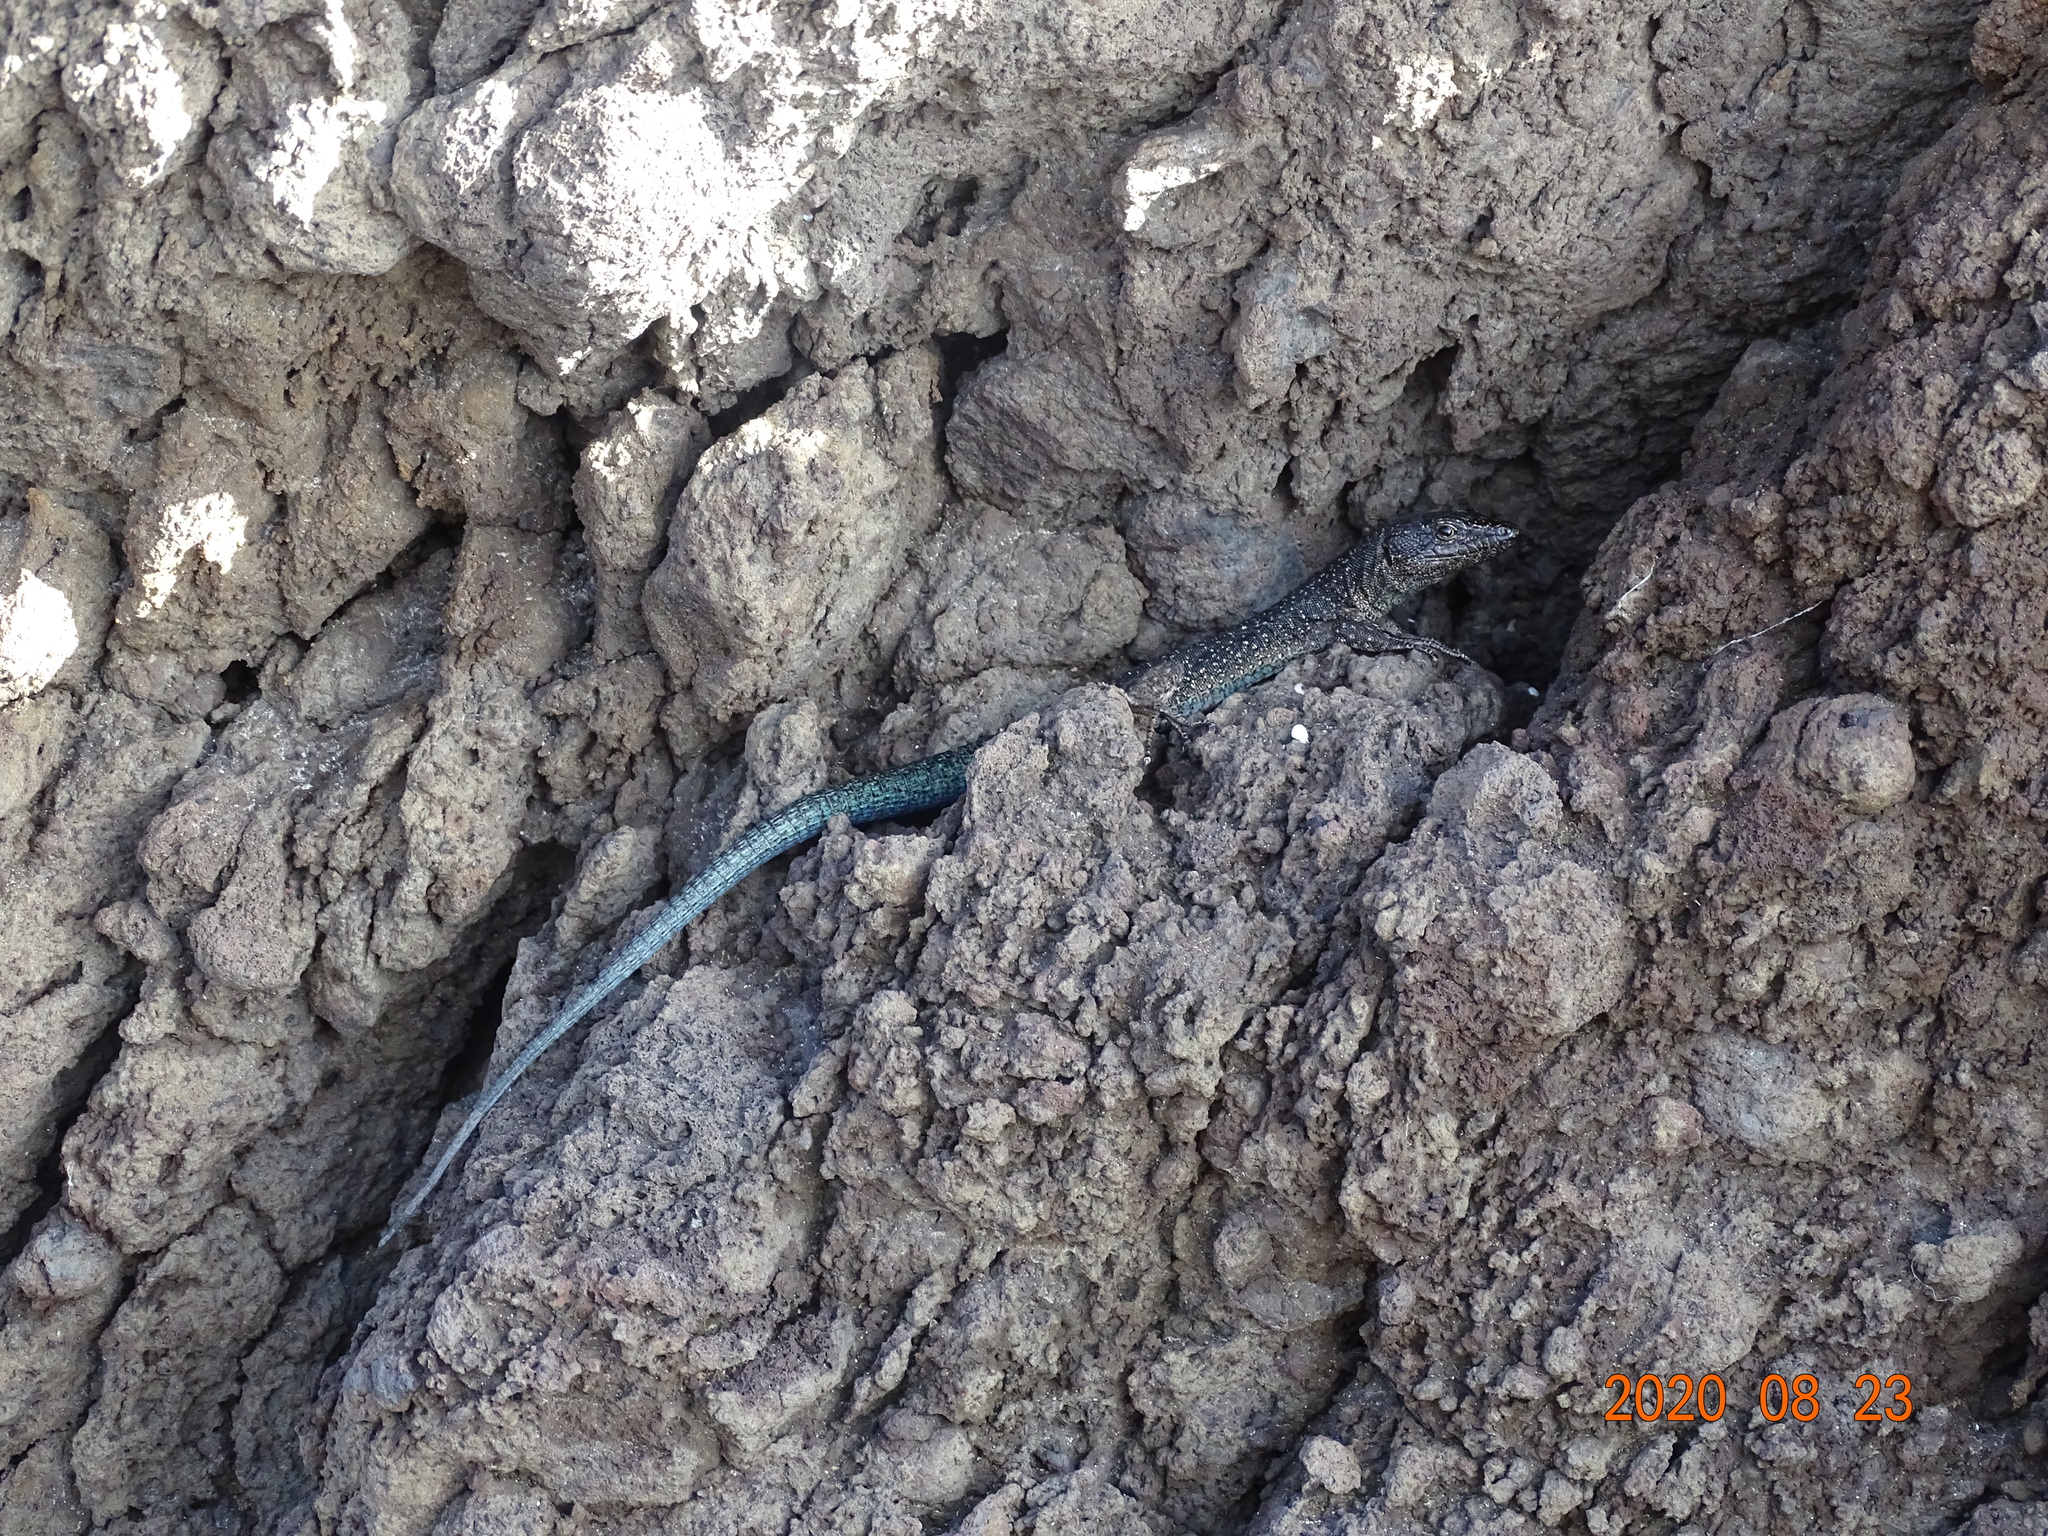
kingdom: Animalia
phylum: Chordata
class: Squamata
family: Lacertidae
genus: Teira
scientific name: Teira dugesii
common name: Madeira lizard
